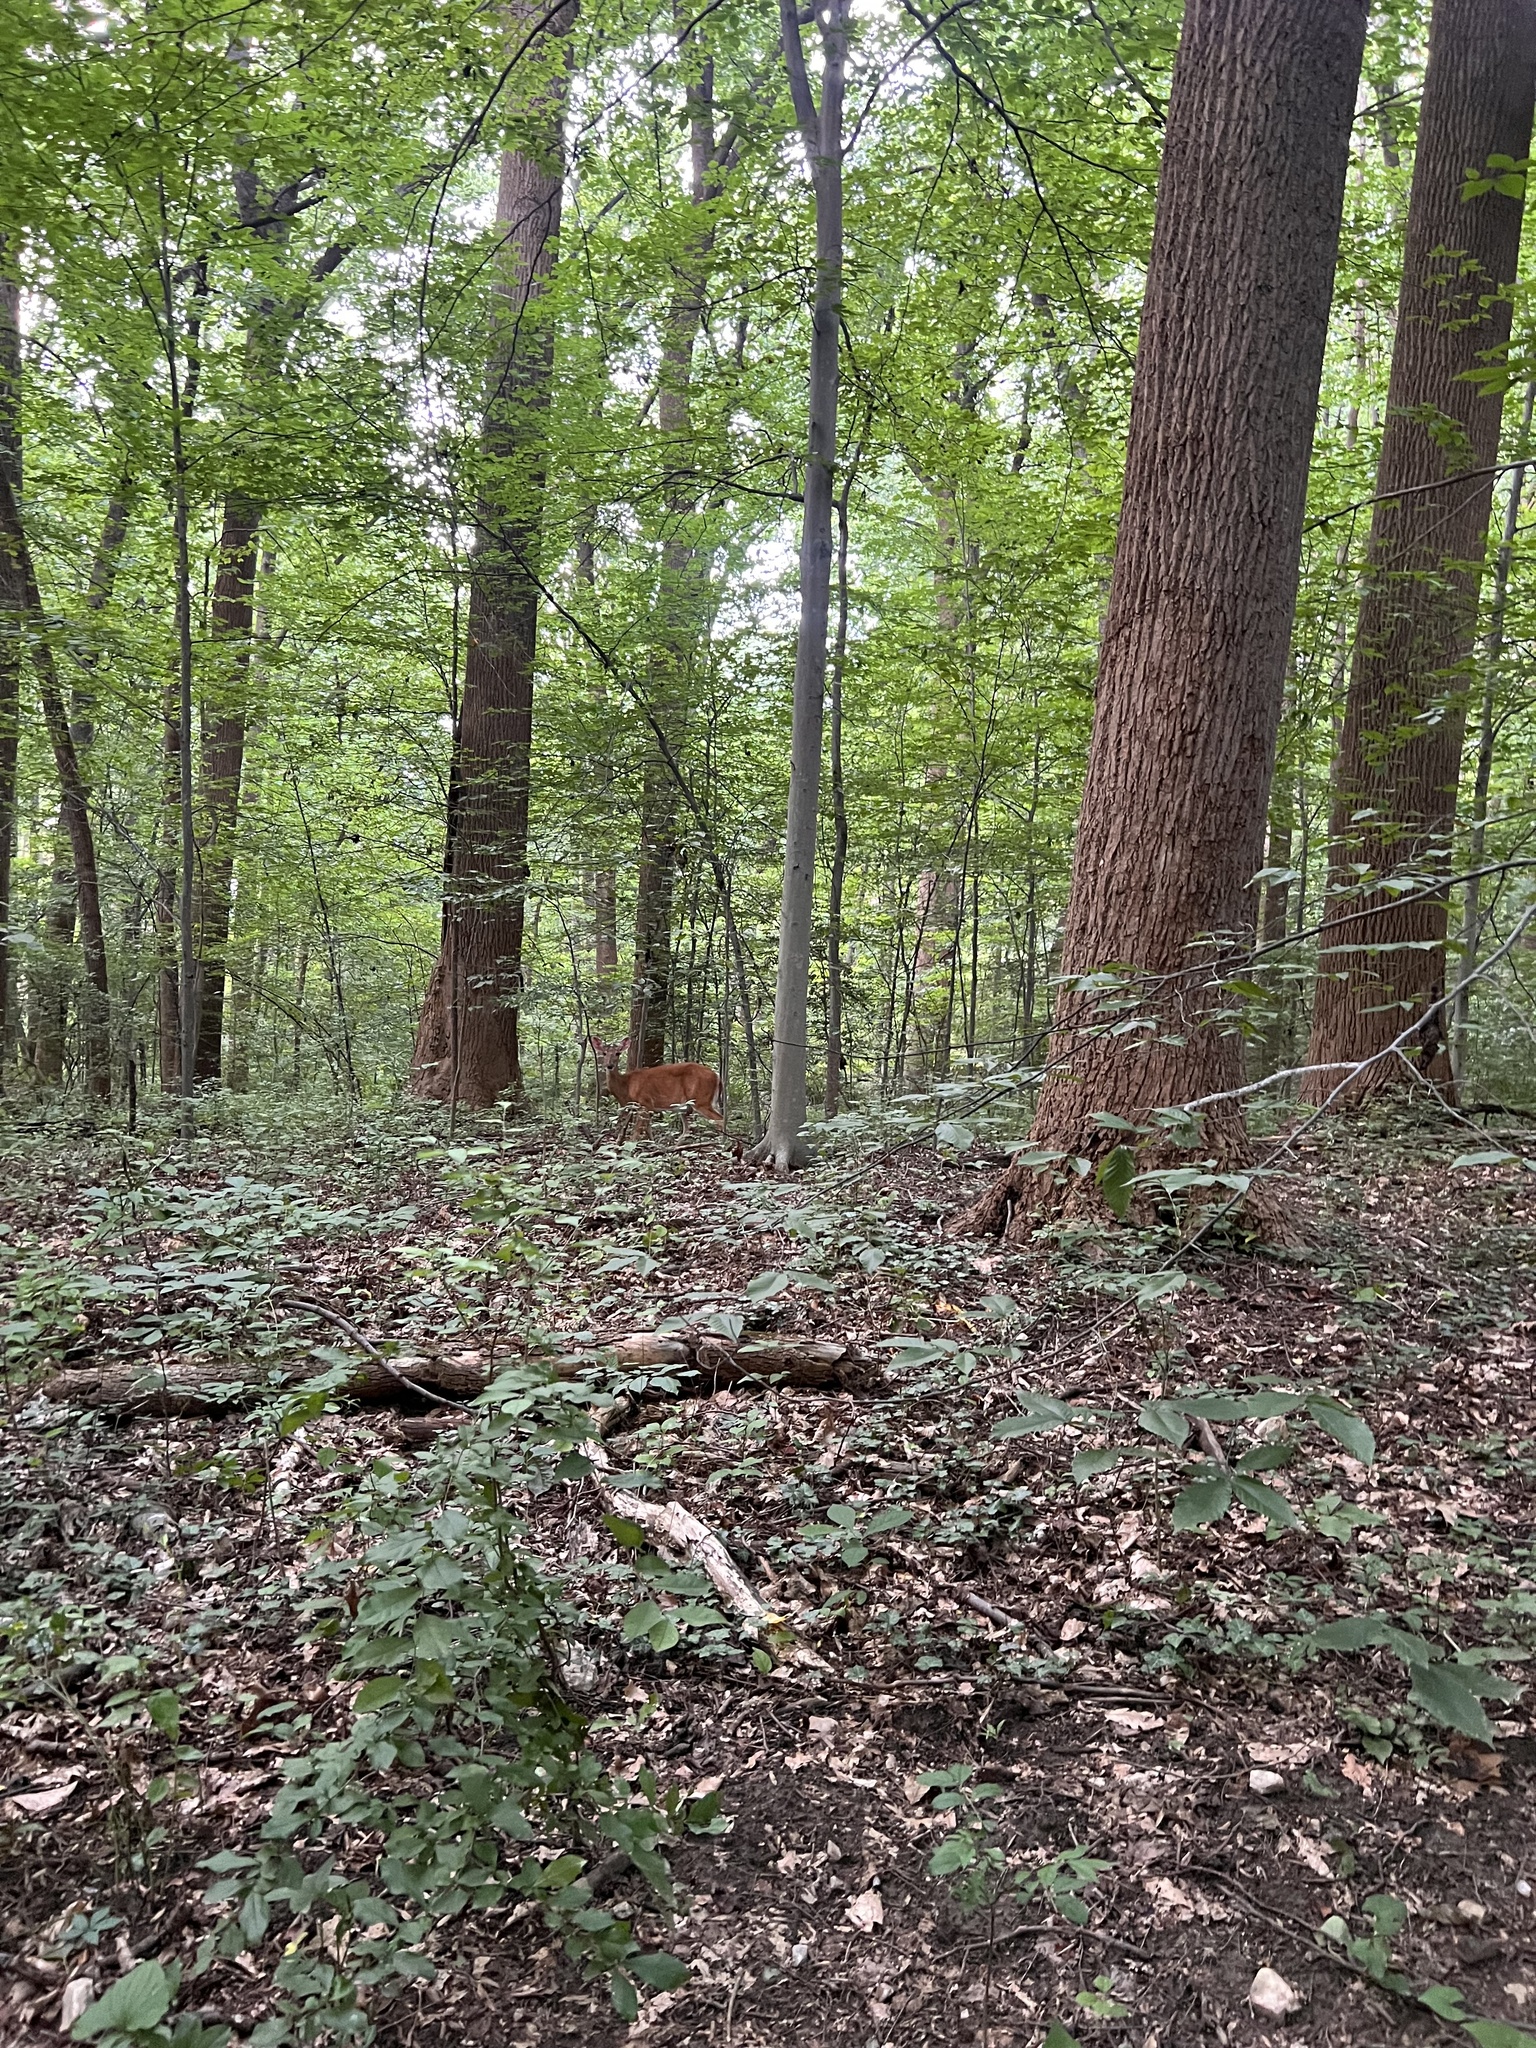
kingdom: Animalia
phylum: Chordata
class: Mammalia
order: Artiodactyla
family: Cervidae
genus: Odocoileus
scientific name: Odocoileus virginianus
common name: White-tailed deer
